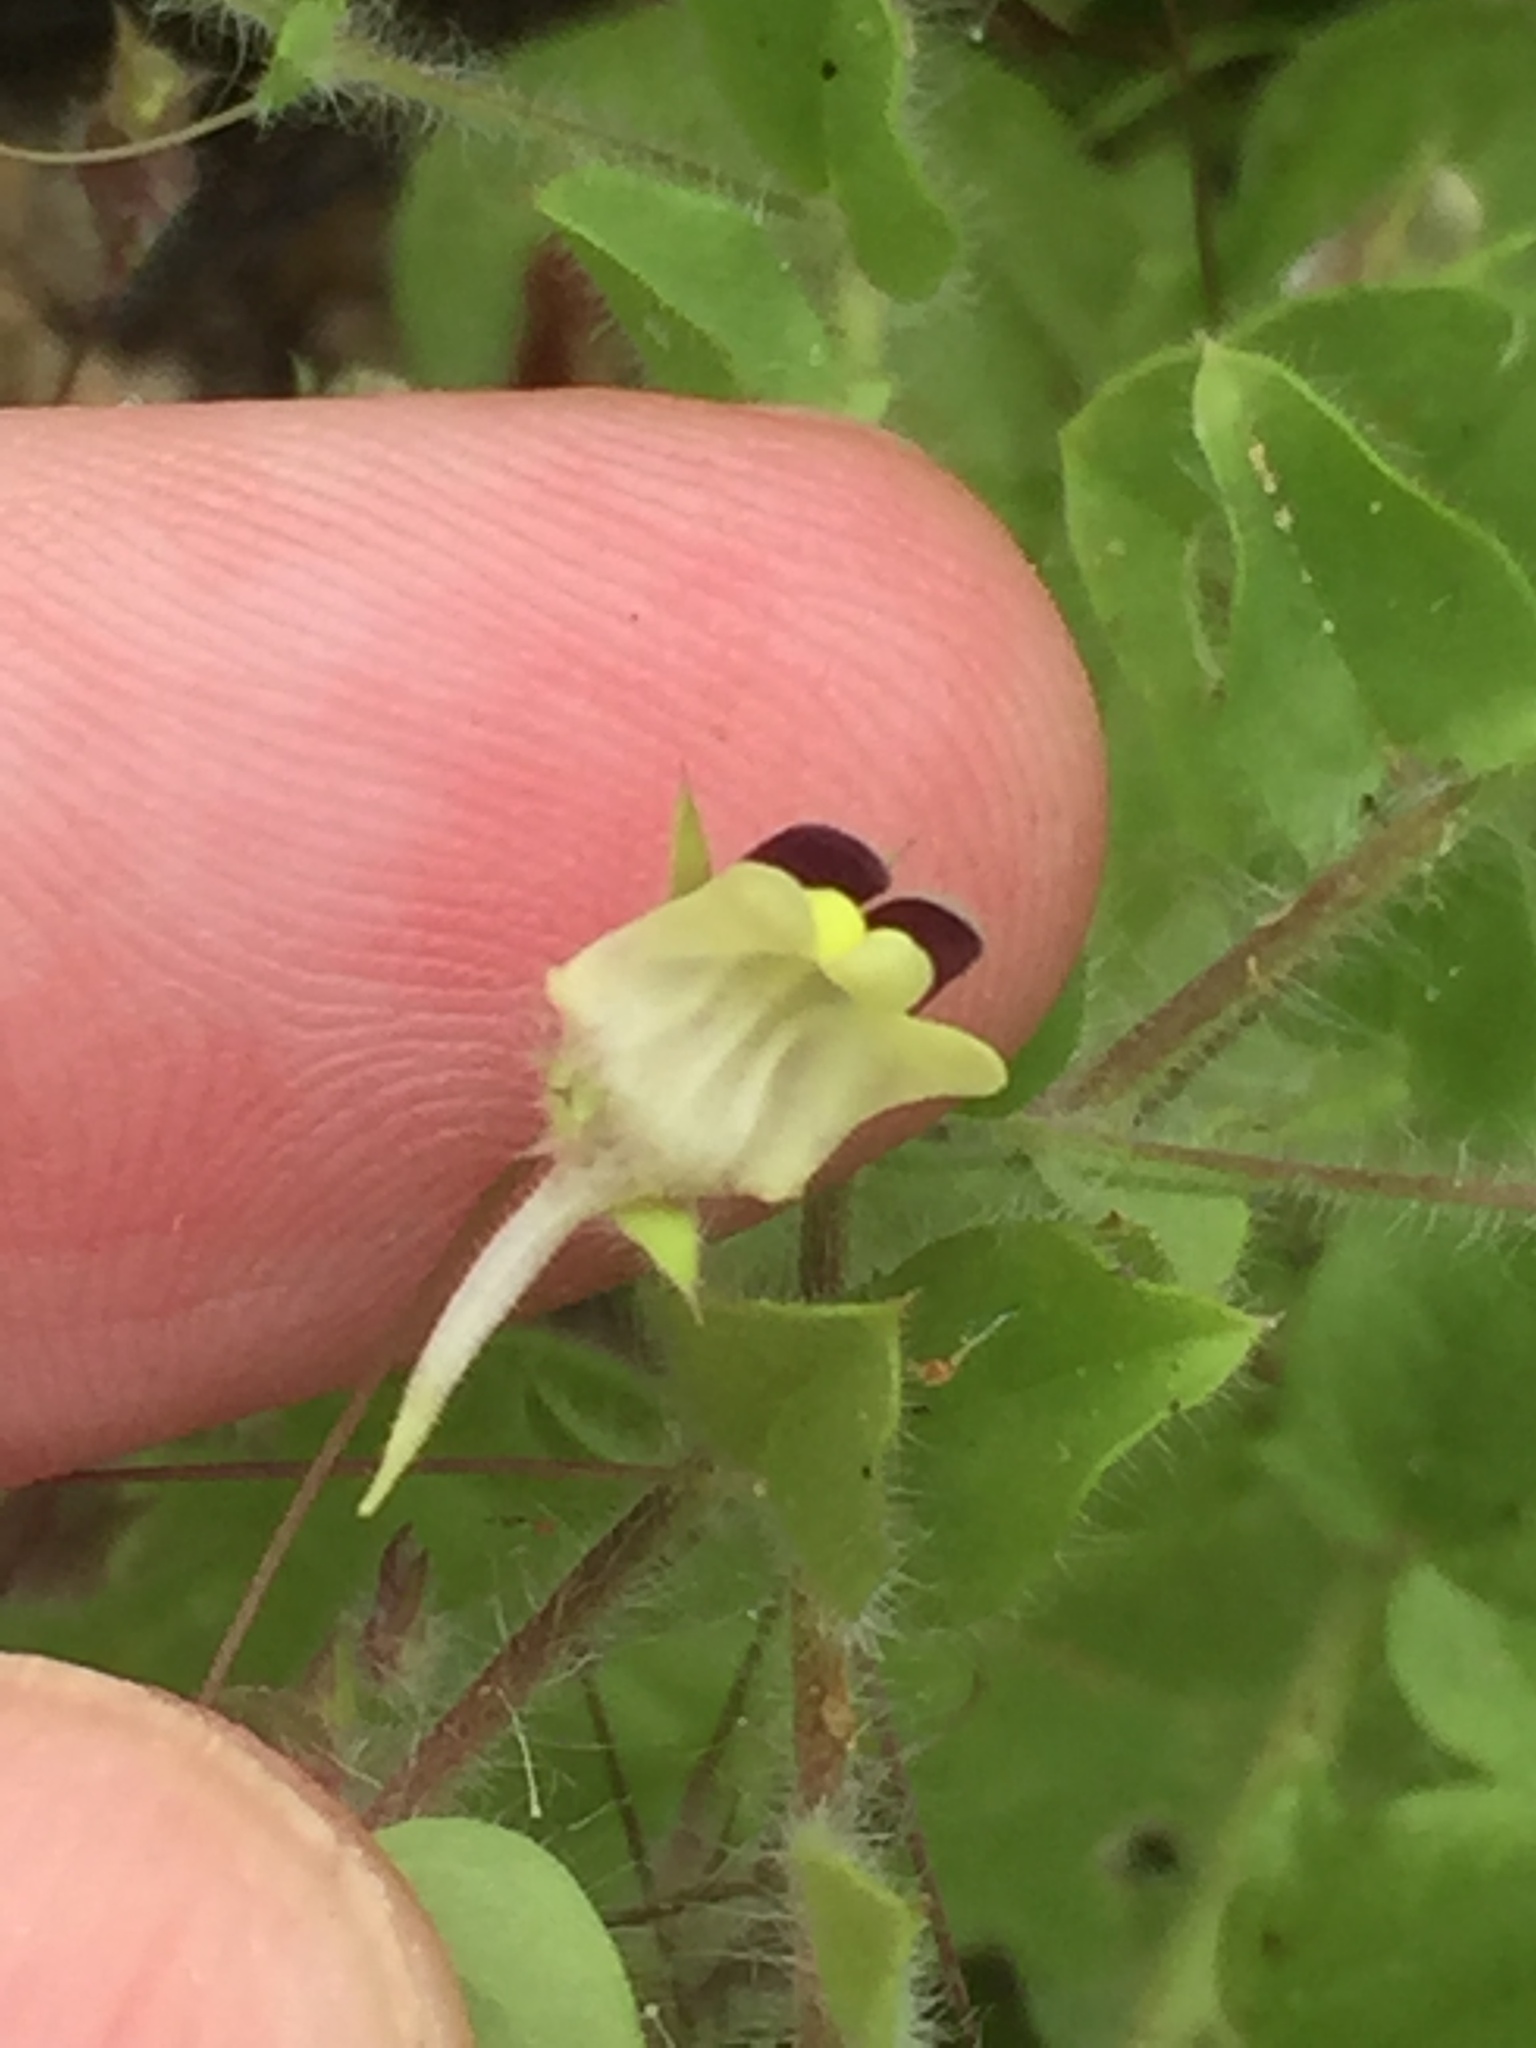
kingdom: Plantae
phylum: Tracheophyta
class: Magnoliopsida
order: Lamiales
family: Plantaginaceae
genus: Kickxia
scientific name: Kickxia elatine
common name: Sharp-leaved fluellen
